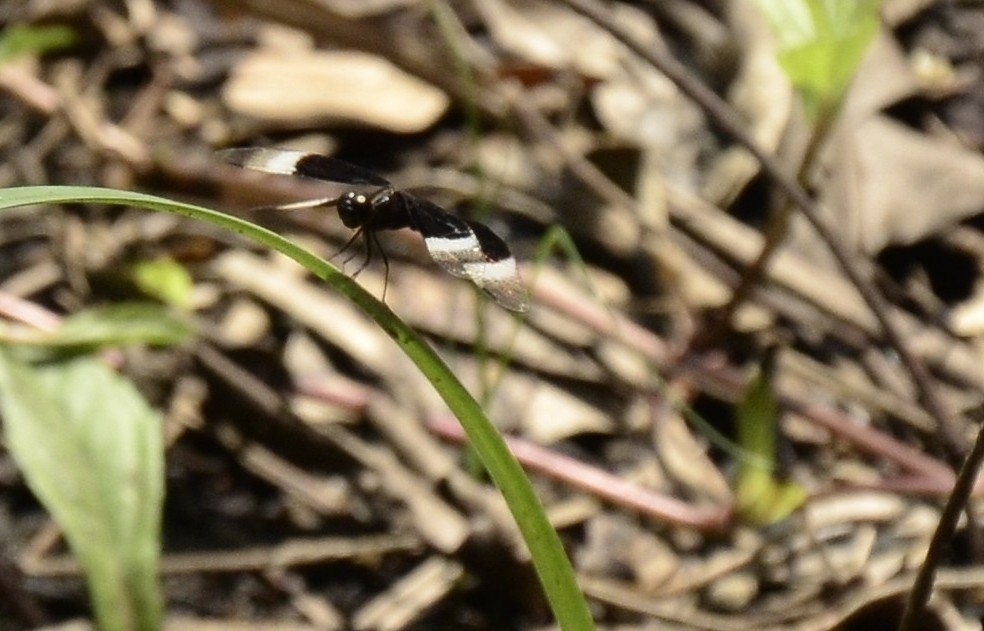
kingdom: Animalia
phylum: Arthropoda
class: Insecta
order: Odonata
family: Libellulidae
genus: Neurothemis
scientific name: Neurothemis tullia
